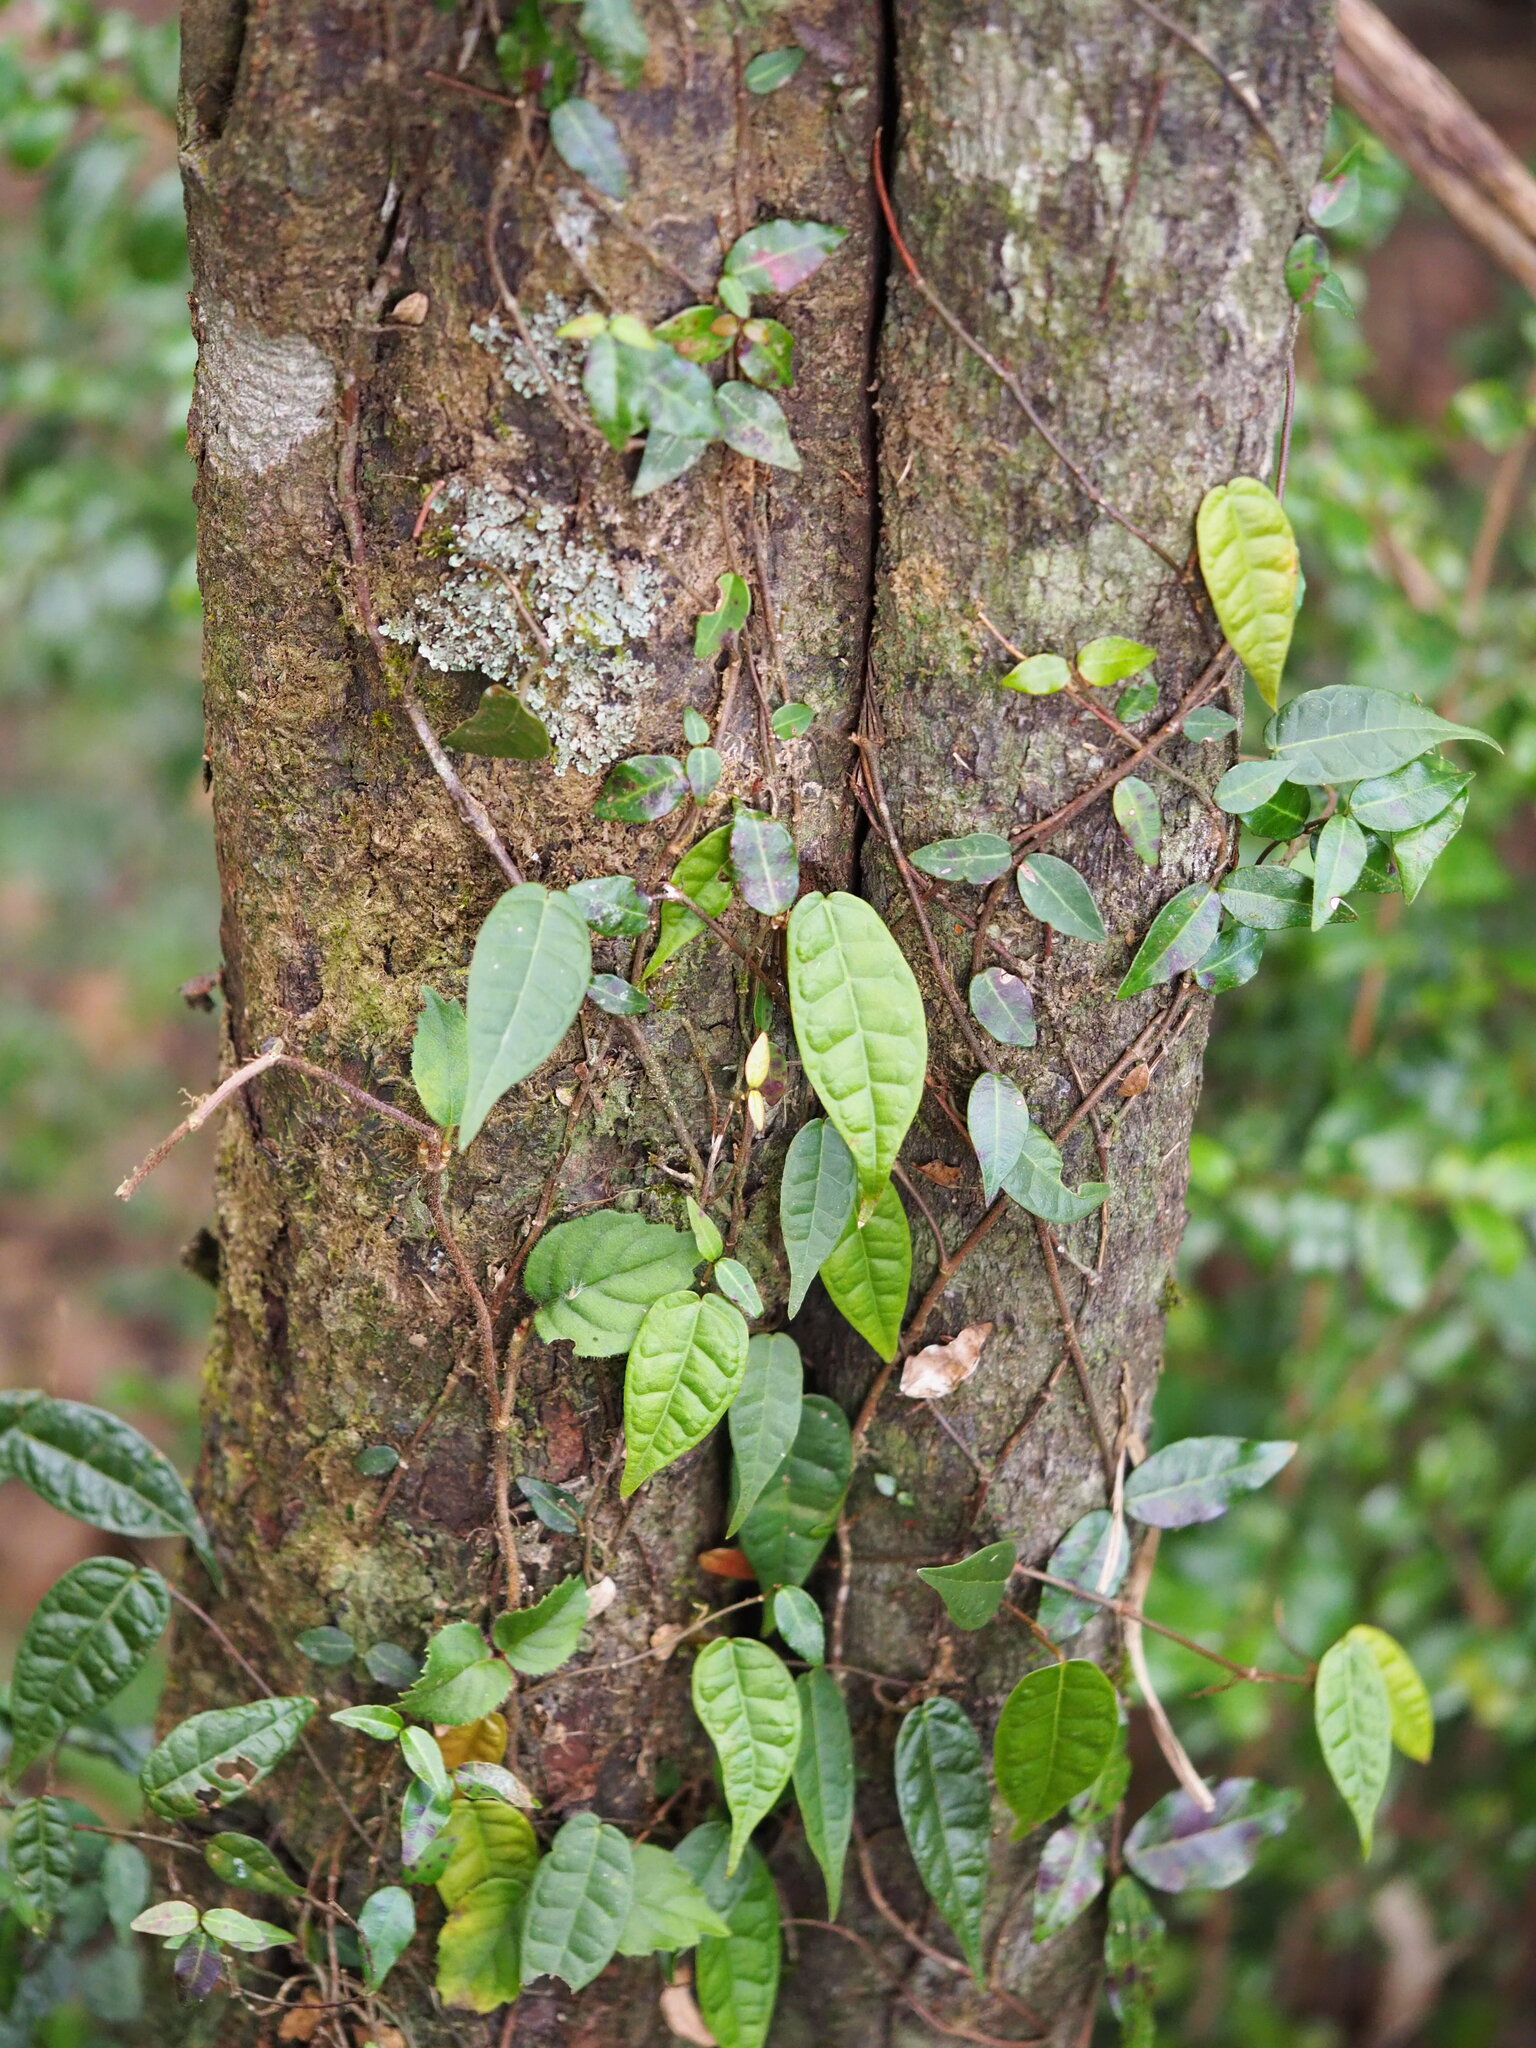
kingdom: Plantae
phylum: Tracheophyta
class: Magnoliopsida
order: Rosales
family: Moraceae
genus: Ficus
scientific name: Ficus sarmentosa
